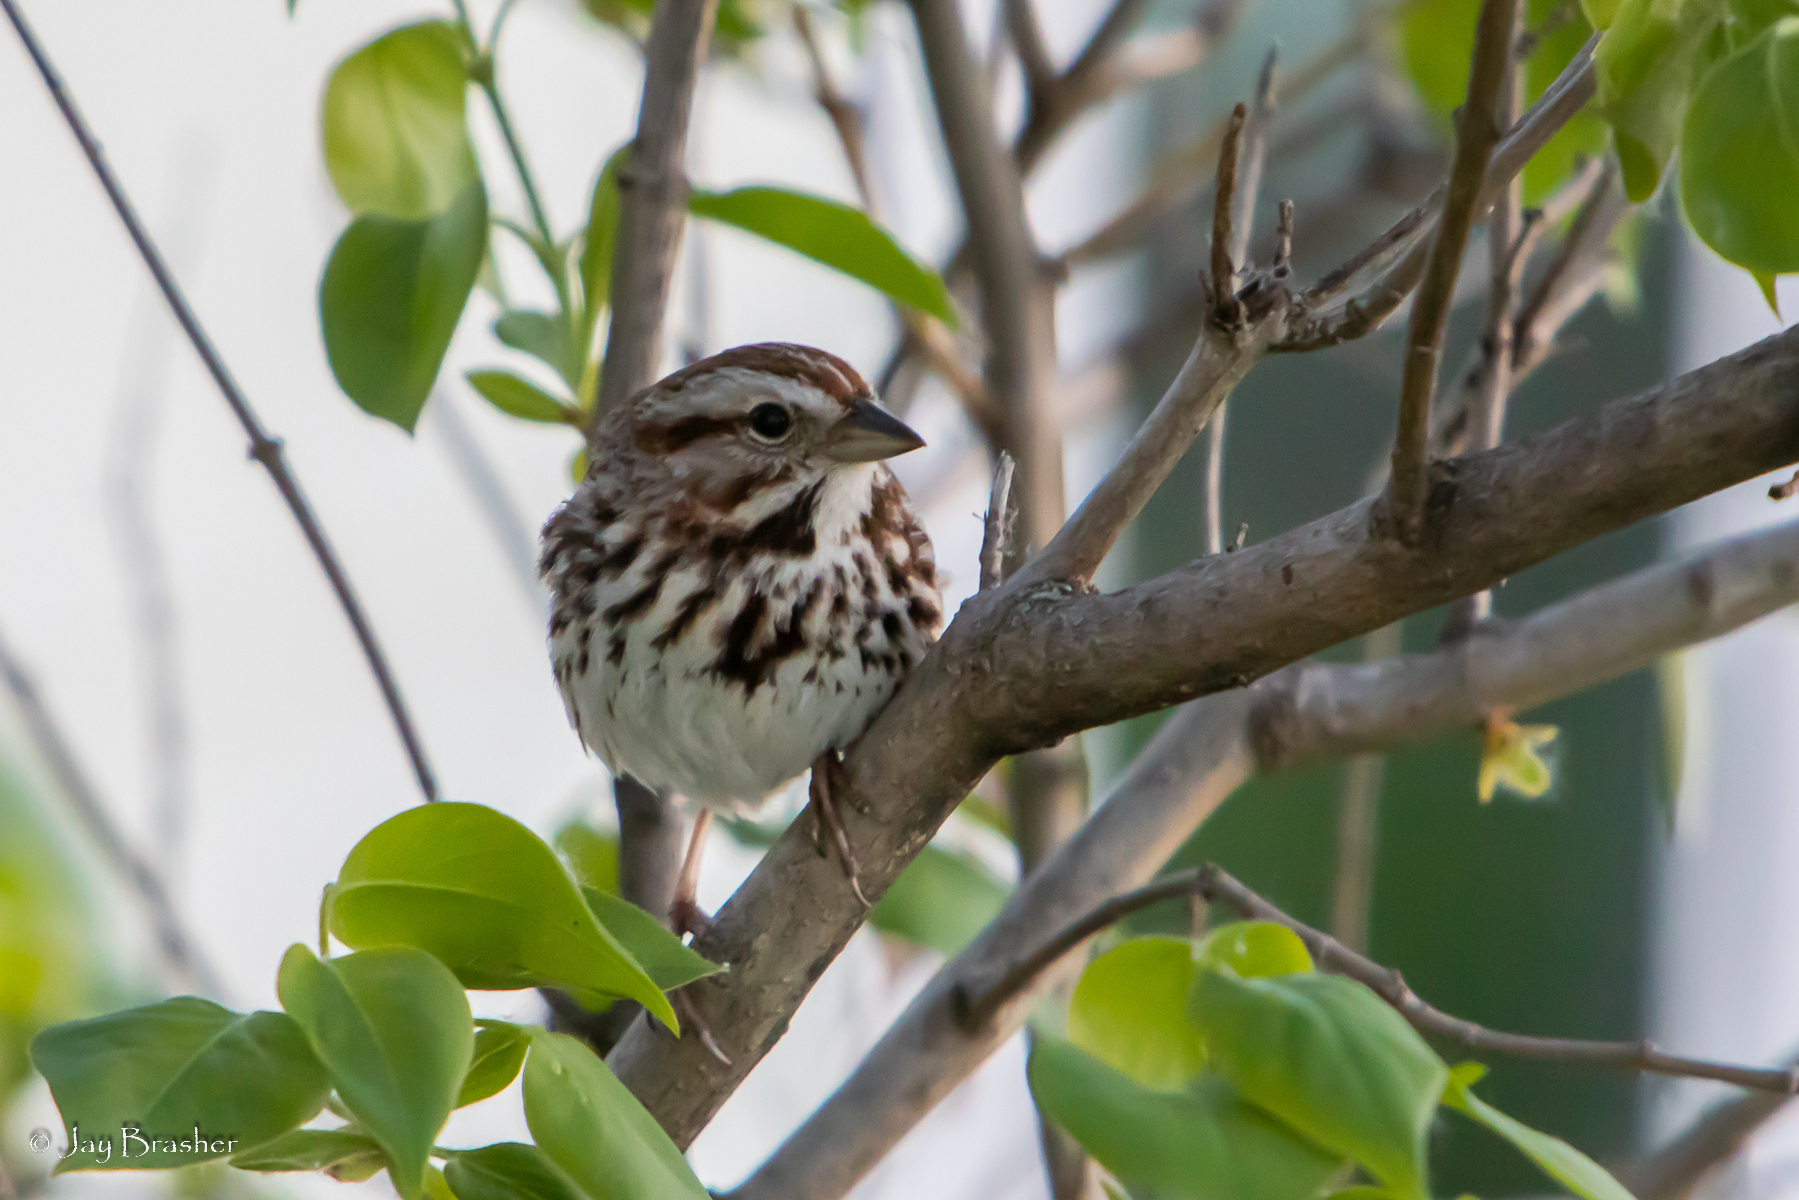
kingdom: Animalia
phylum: Chordata
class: Aves
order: Passeriformes
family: Passerellidae
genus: Melospiza
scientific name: Melospiza melodia
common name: Song sparrow
